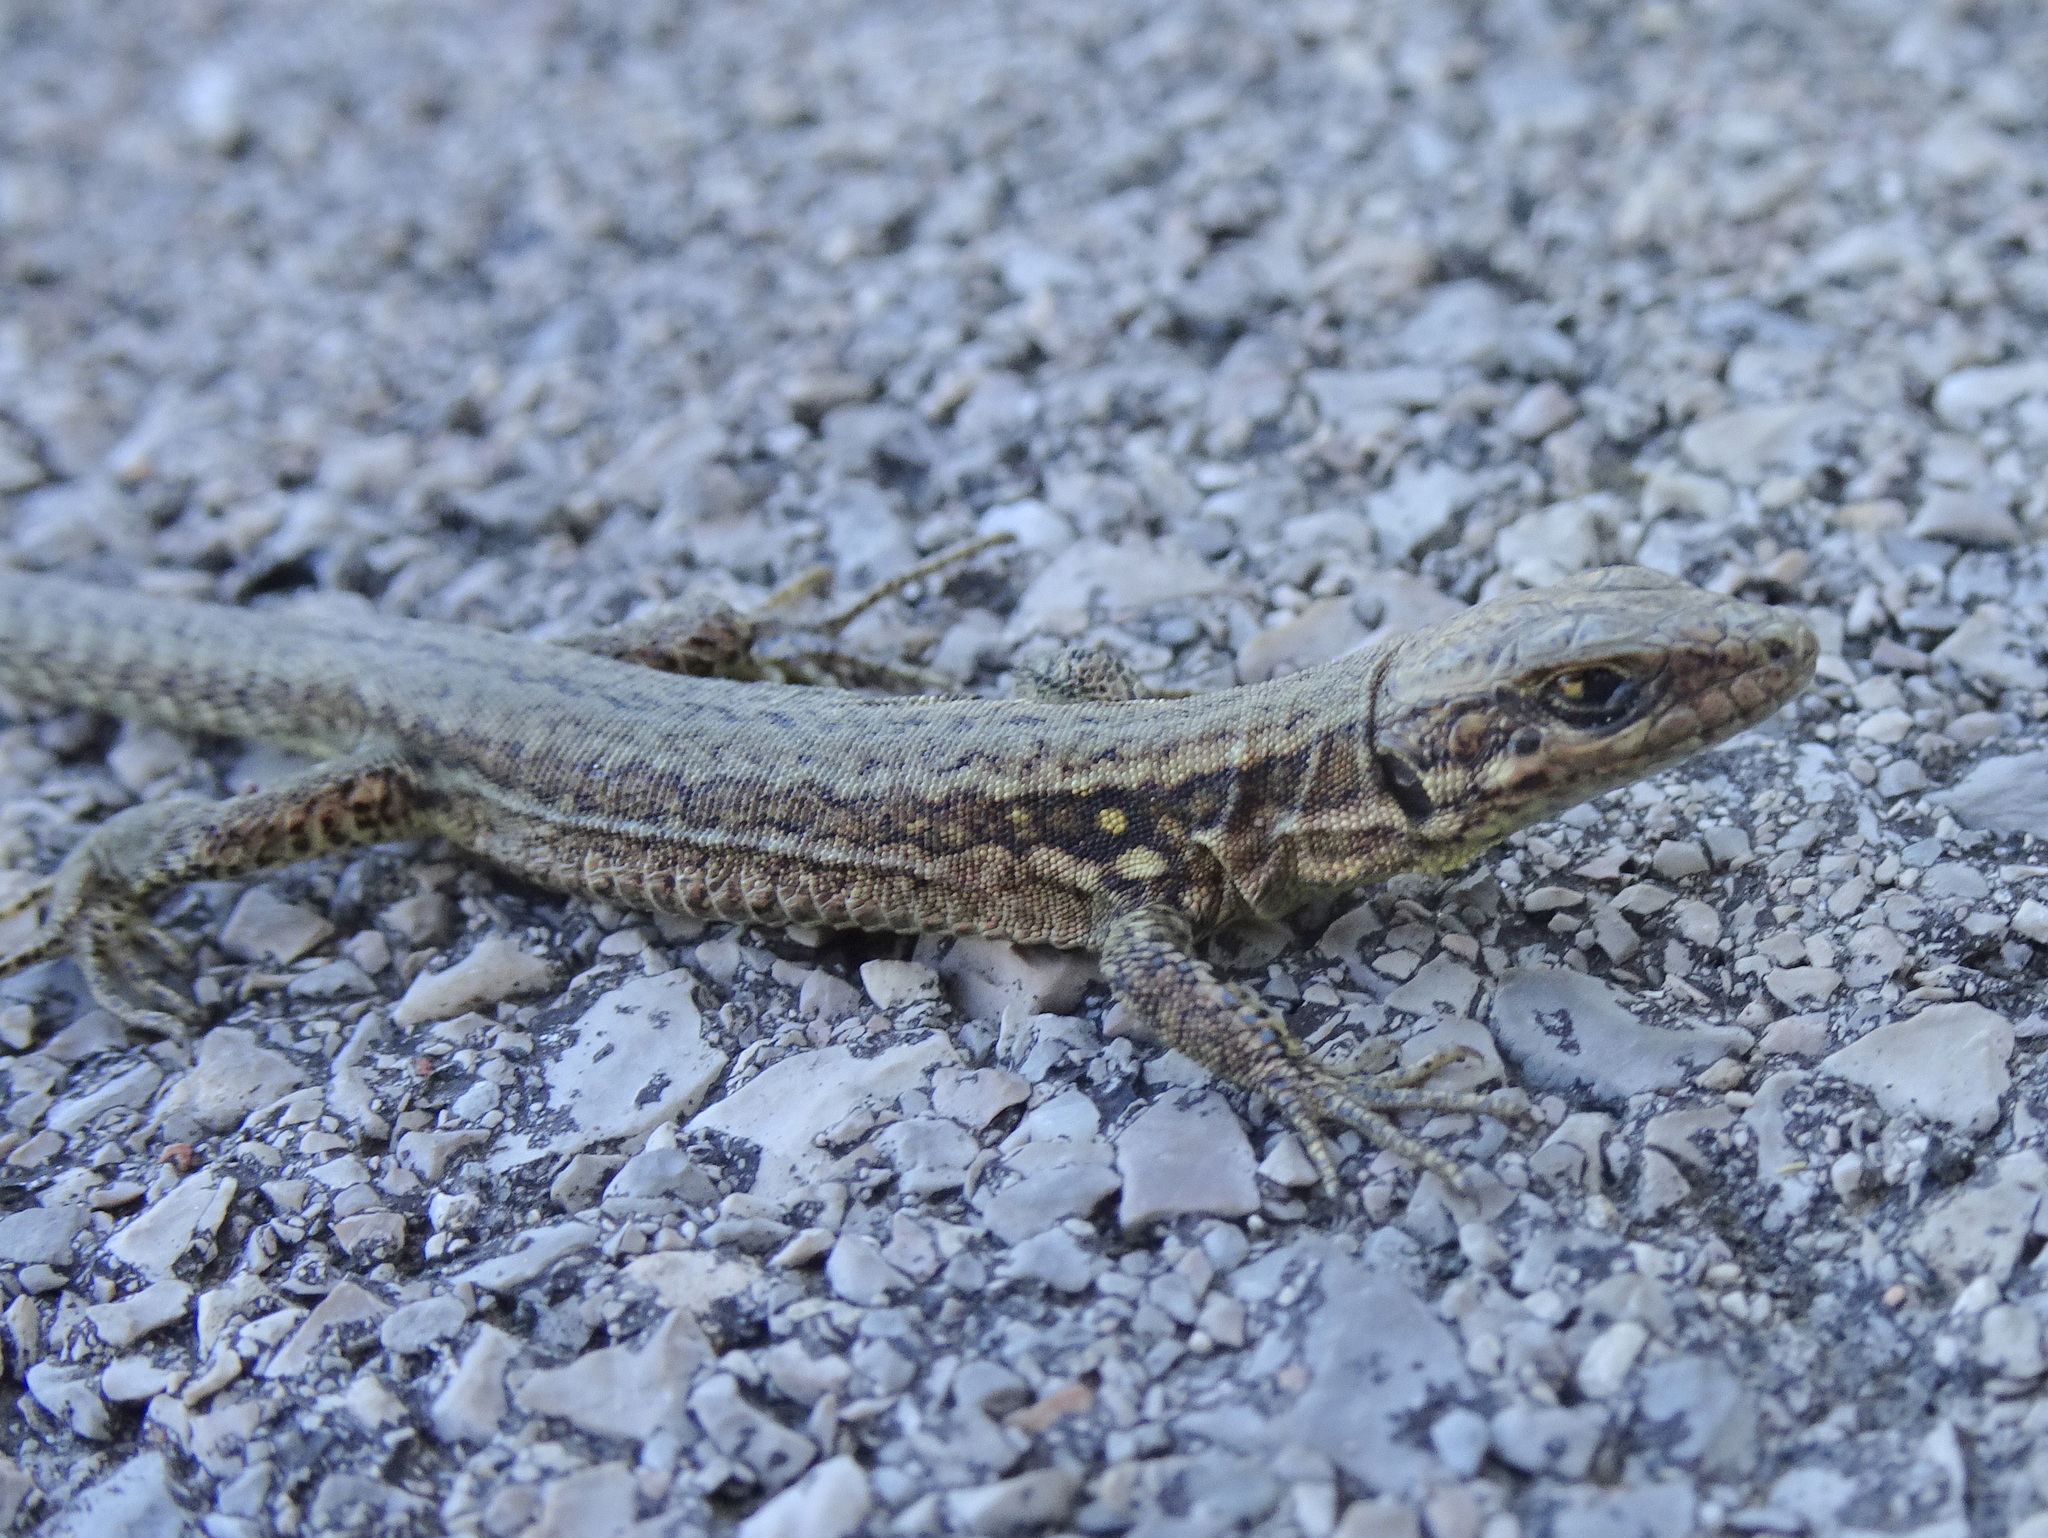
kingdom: Animalia
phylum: Chordata
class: Squamata
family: Lacertidae
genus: Podarcis
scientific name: Podarcis muralis
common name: Common wall lizard
